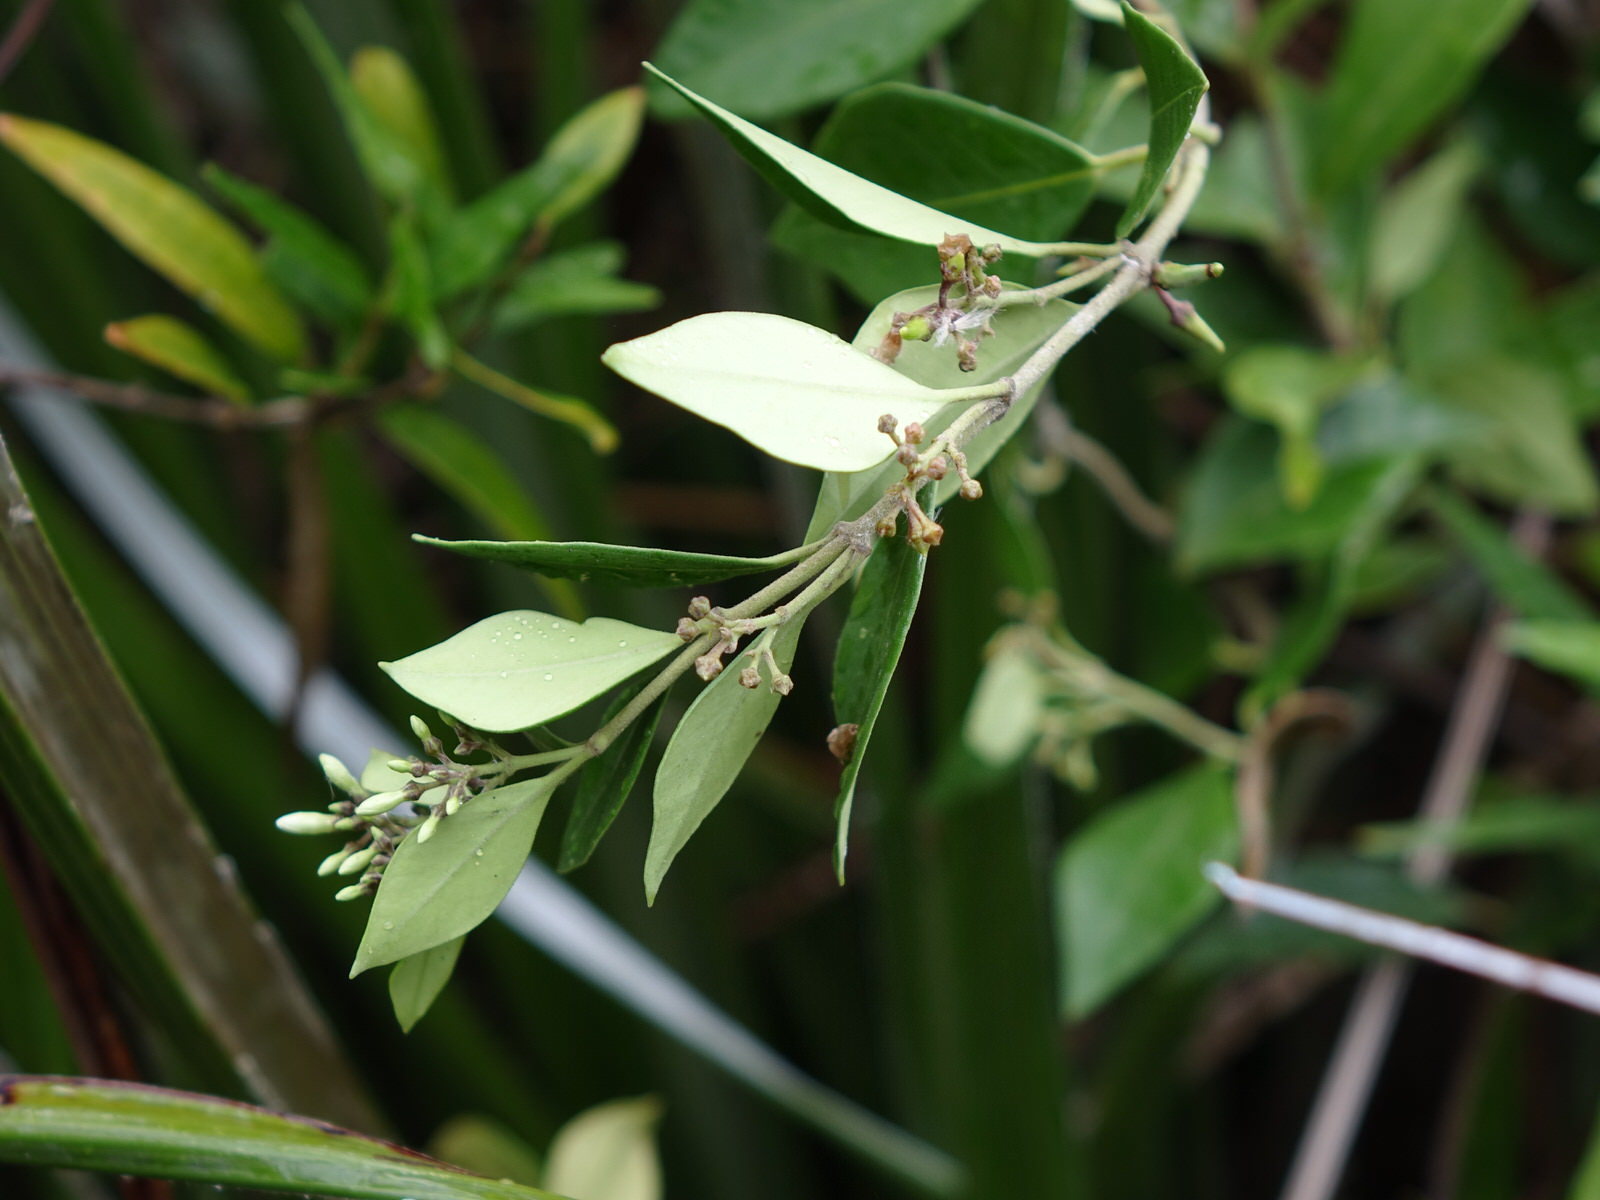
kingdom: Plantae
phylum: Tracheophyta
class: Magnoliopsida
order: Gentianales
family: Apocynaceae
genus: Parsonsia
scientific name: Parsonsia heterophylla
